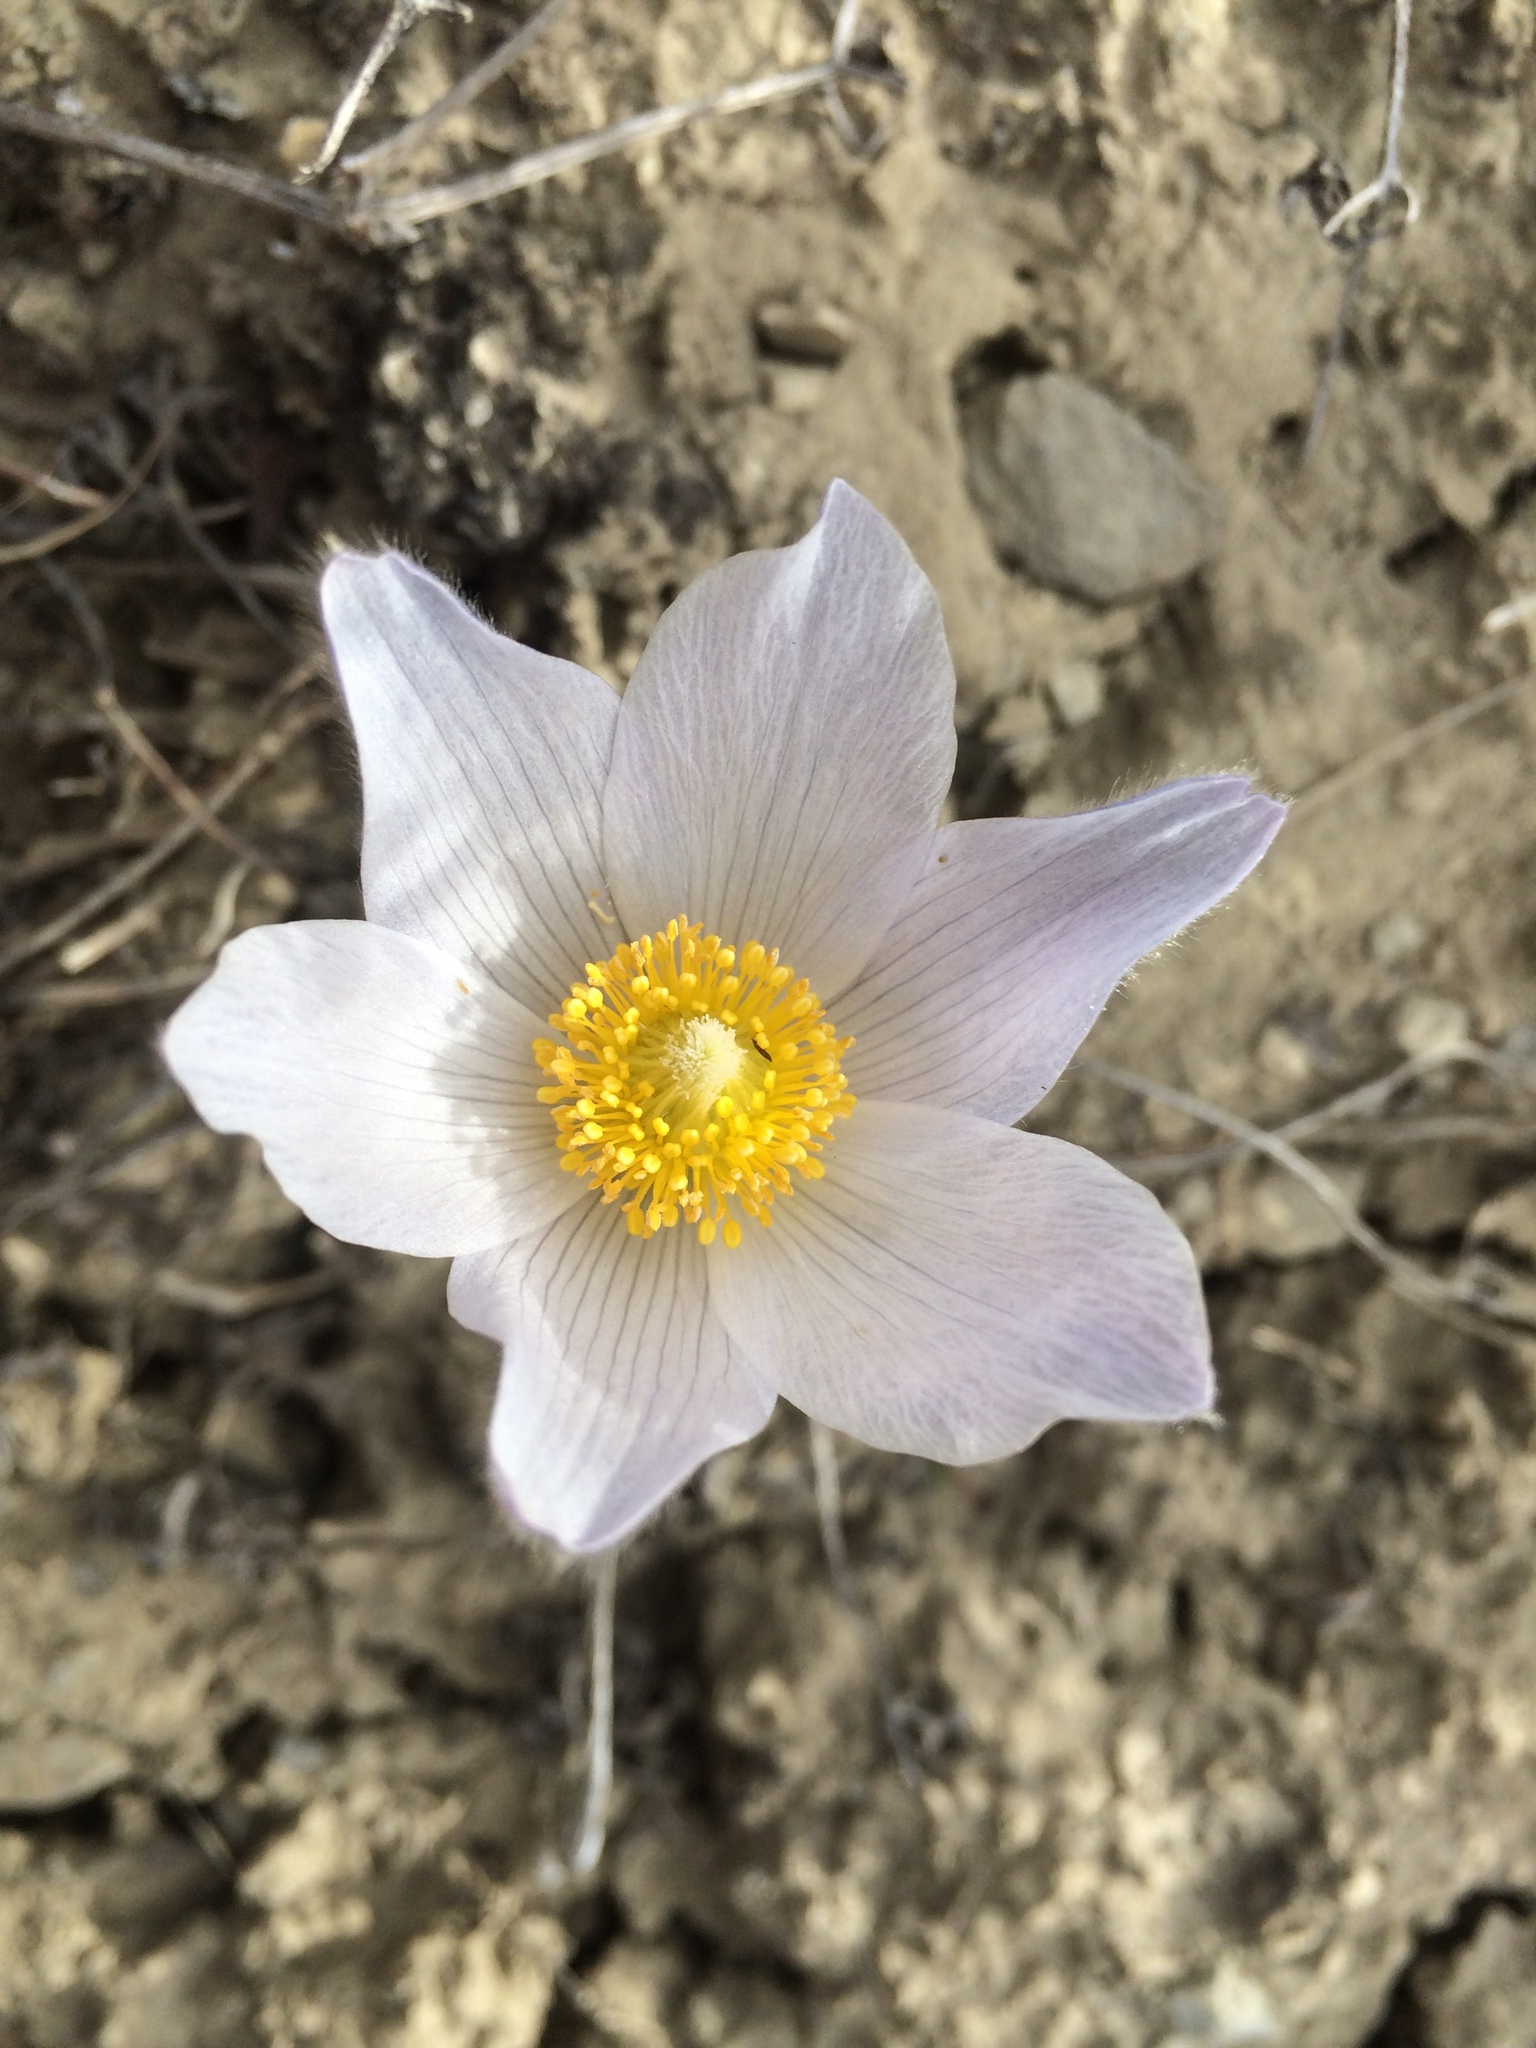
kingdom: Plantae
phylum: Tracheophyta
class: Magnoliopsida
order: Ranunculales
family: Ranunculaceae
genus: Pulsatilla
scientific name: Pulsatilla nuttalliana
